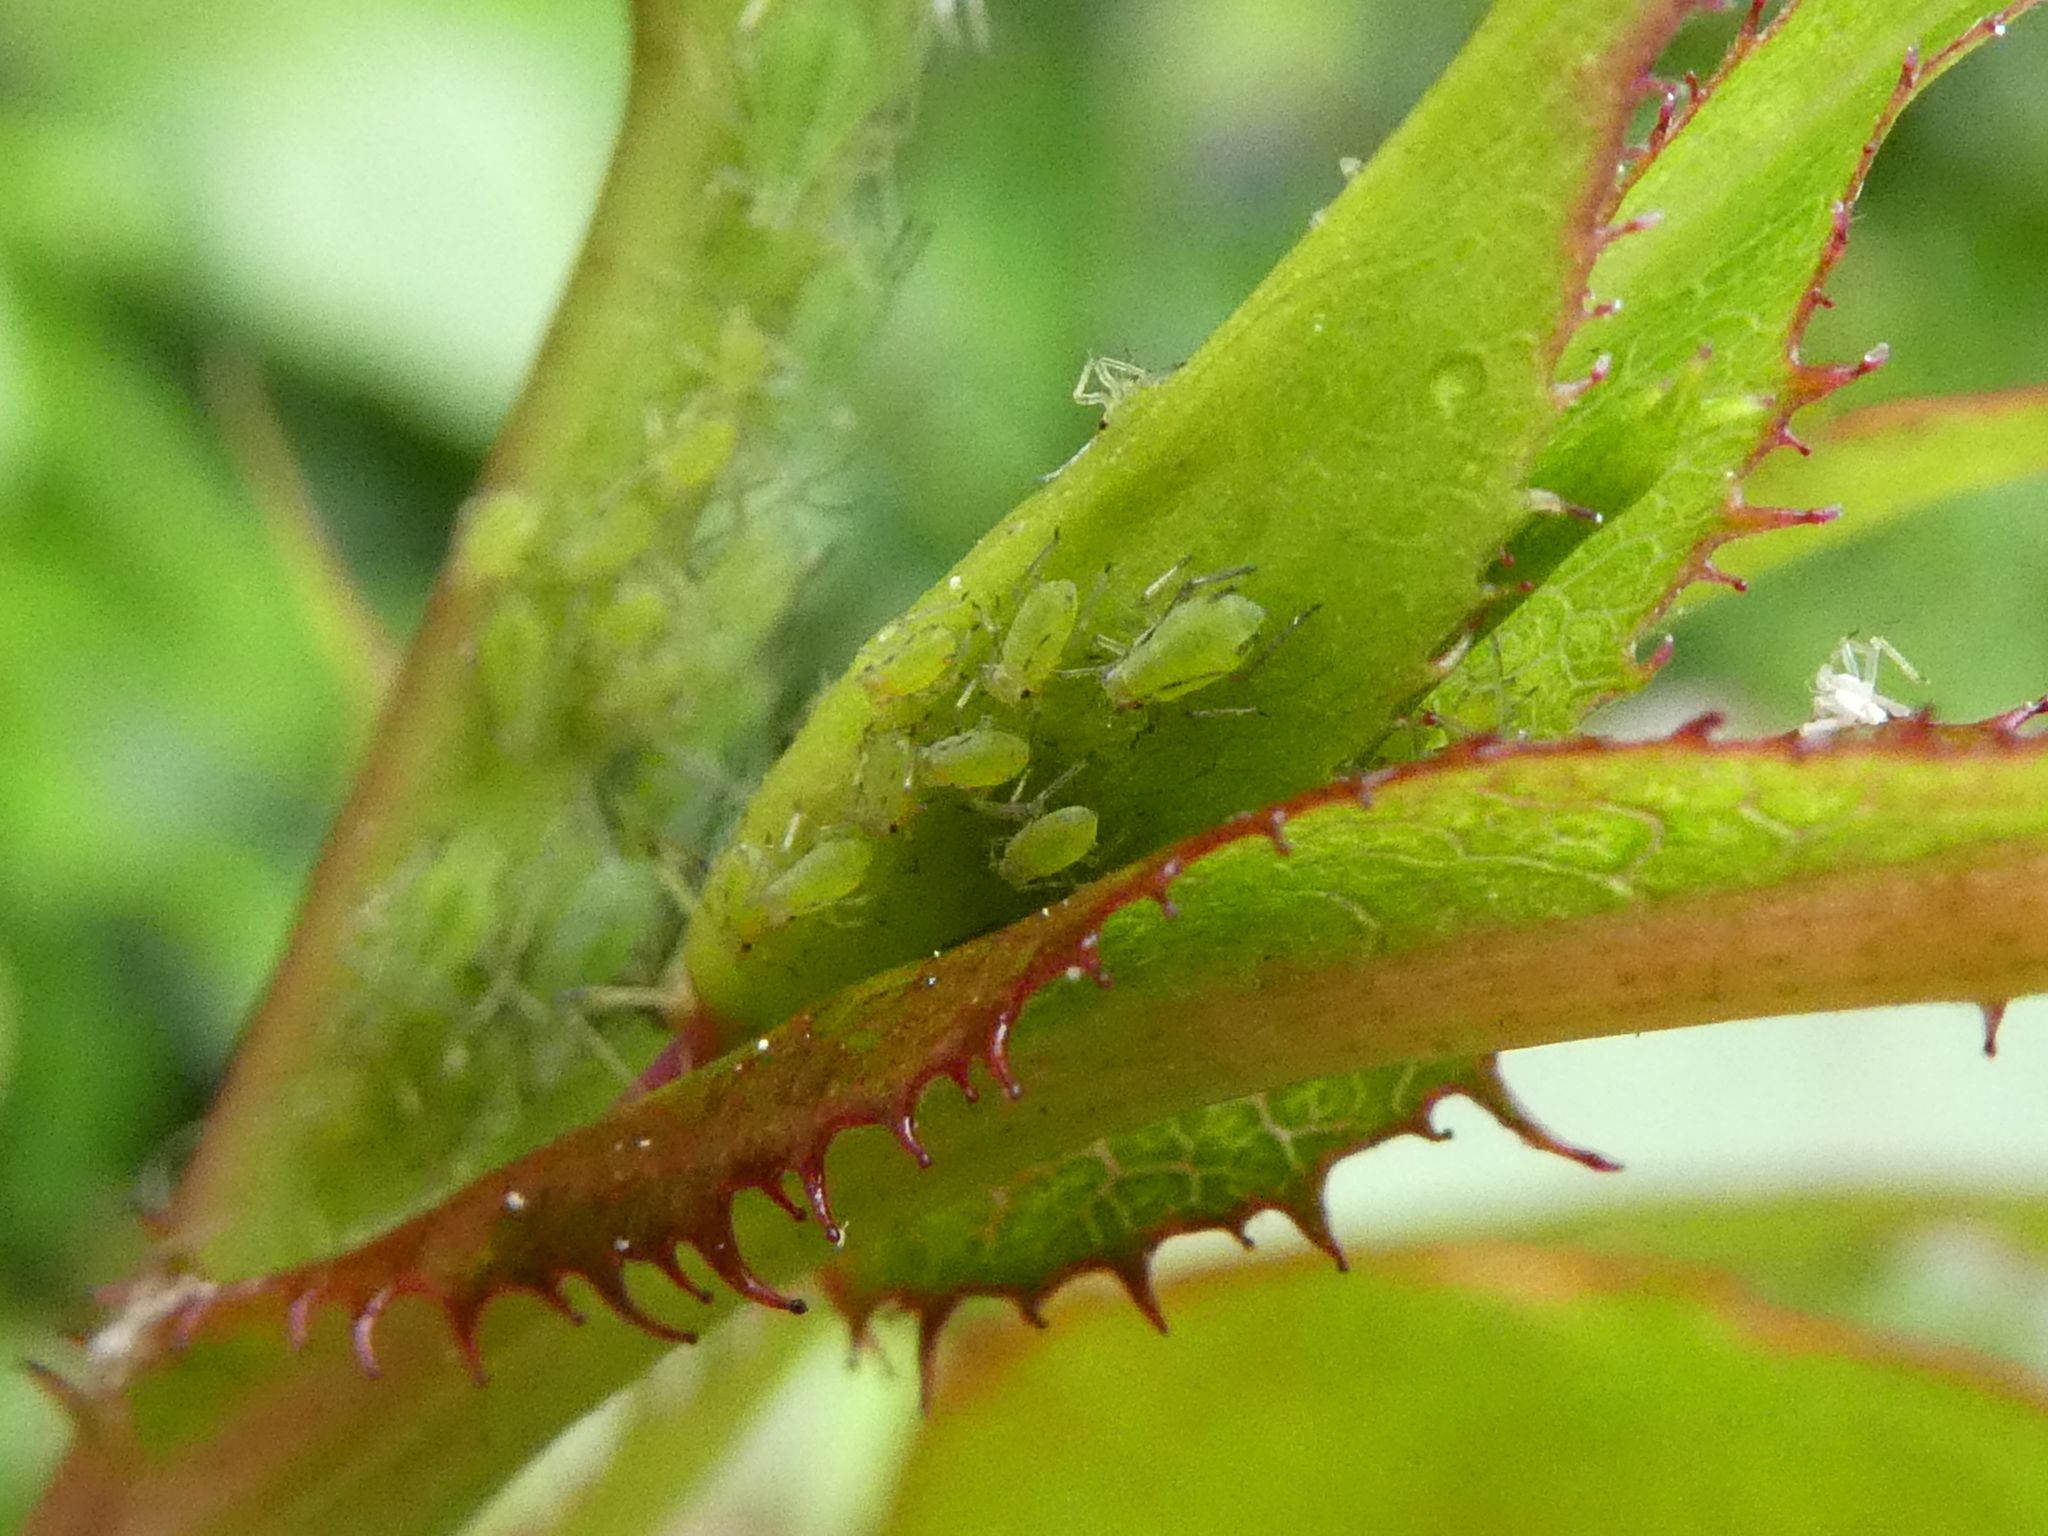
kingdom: Animalia
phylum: Arthropoda
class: Insecta
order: Hemiptera
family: Aphididae
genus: Macrosiphum
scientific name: Macrosiphum rosae
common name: Rose aphid
